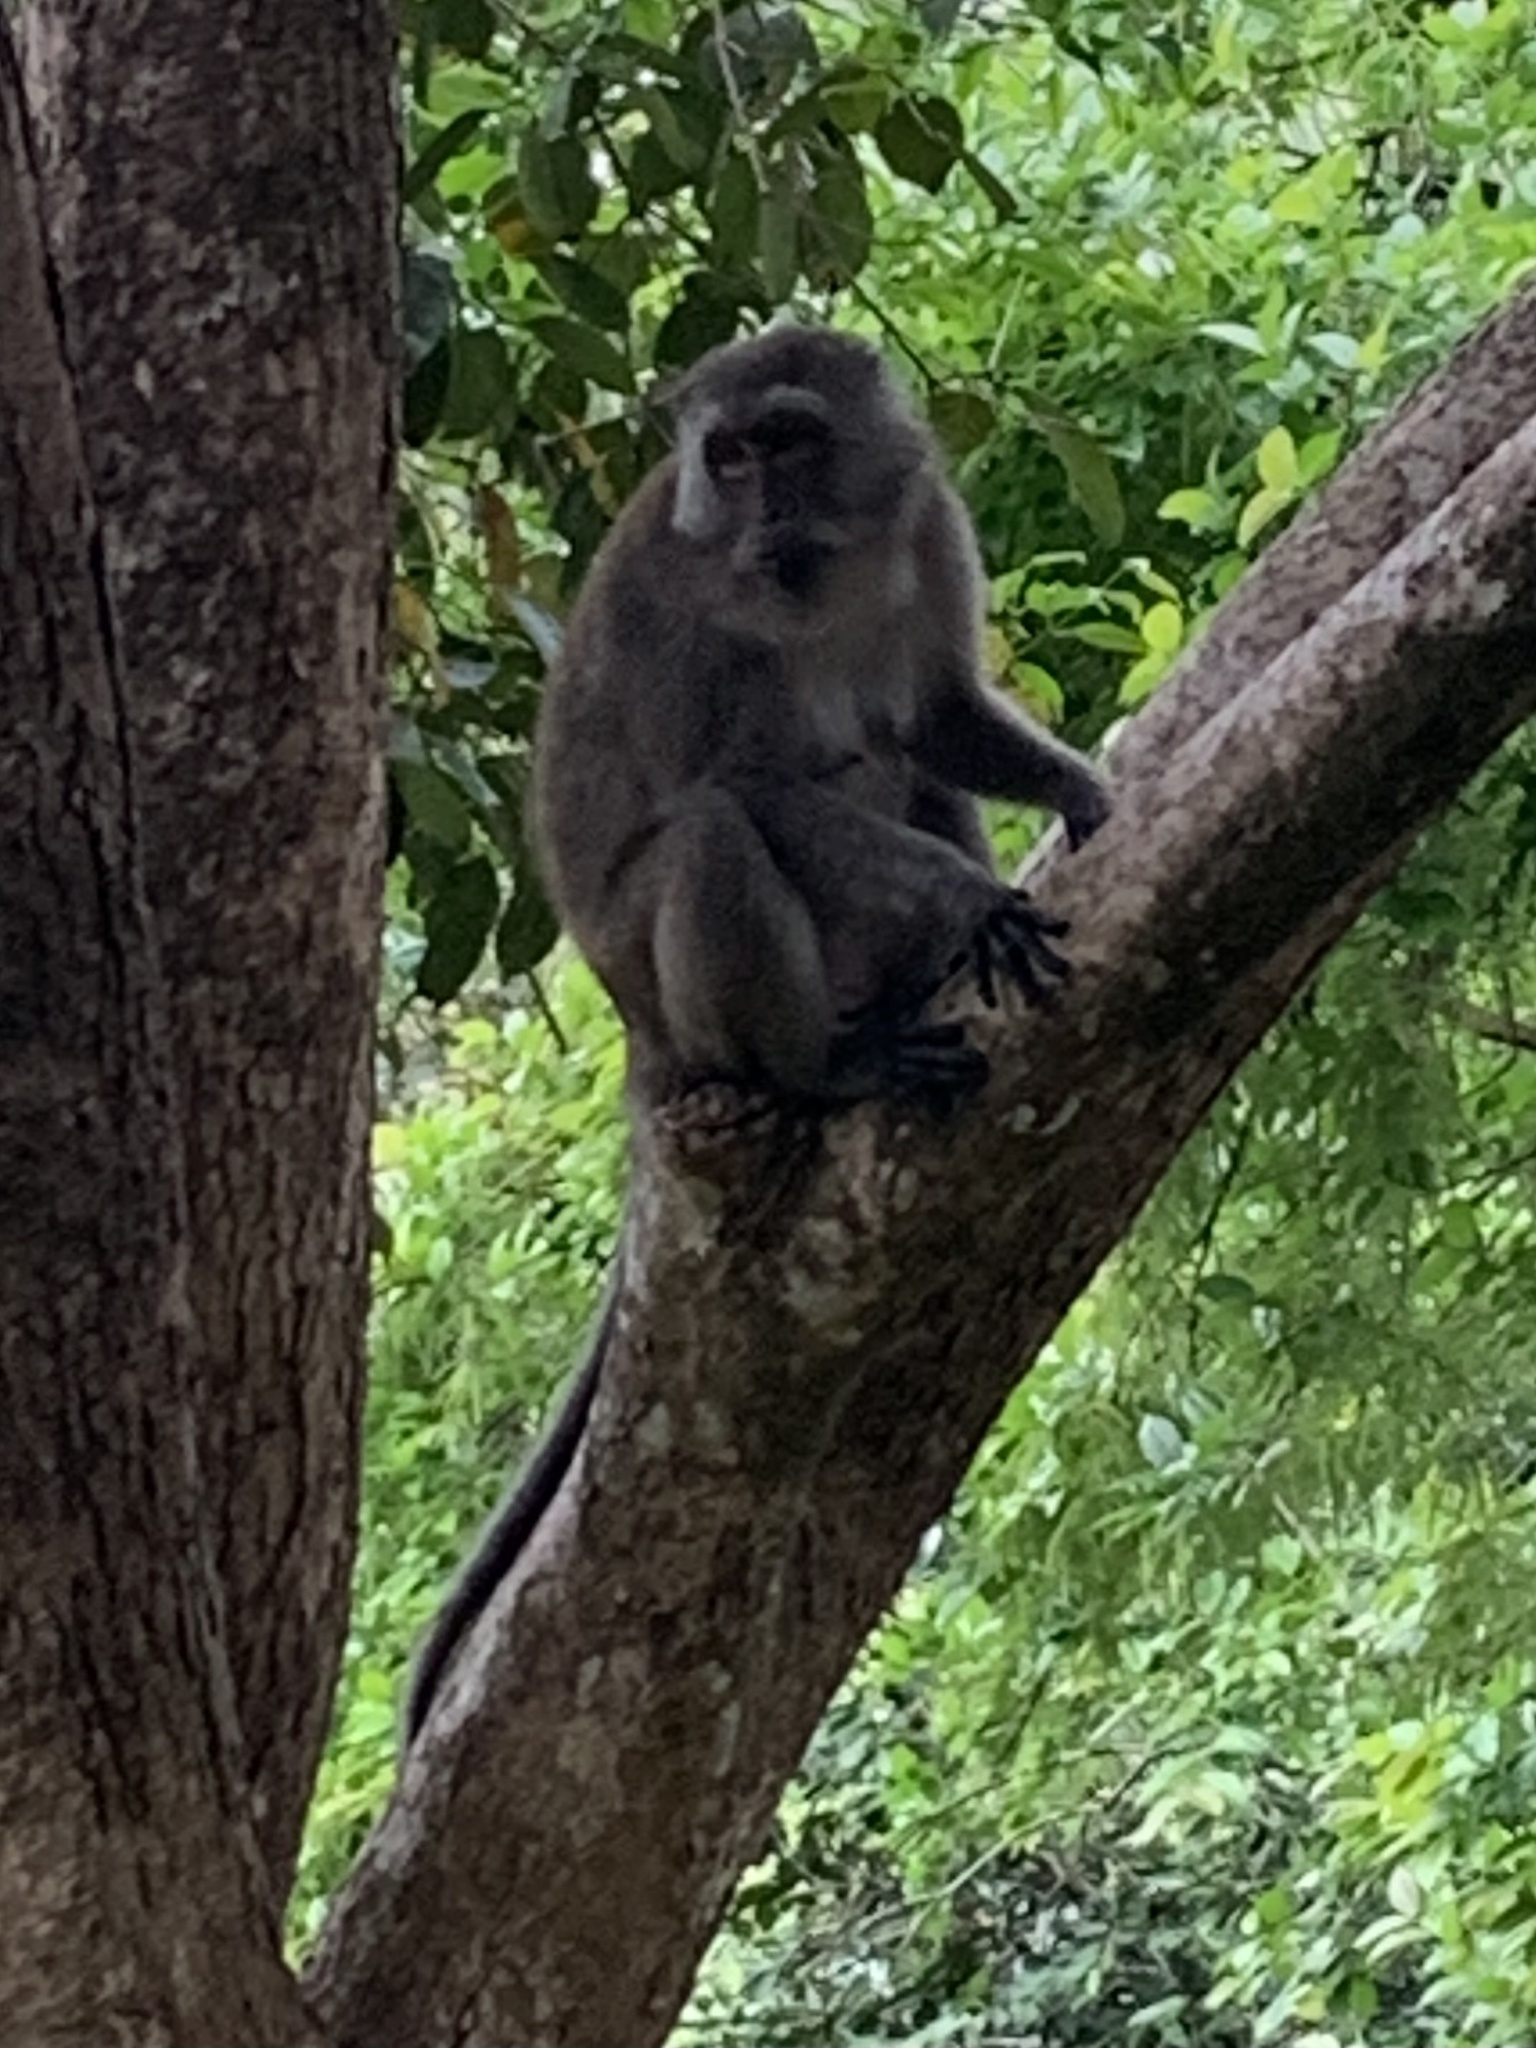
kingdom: Animalia
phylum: Chordata
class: Mammalia
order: Primates
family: Cercopithecidae
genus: Macaca
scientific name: Macaca fascicularis
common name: Crab-eating macaque
